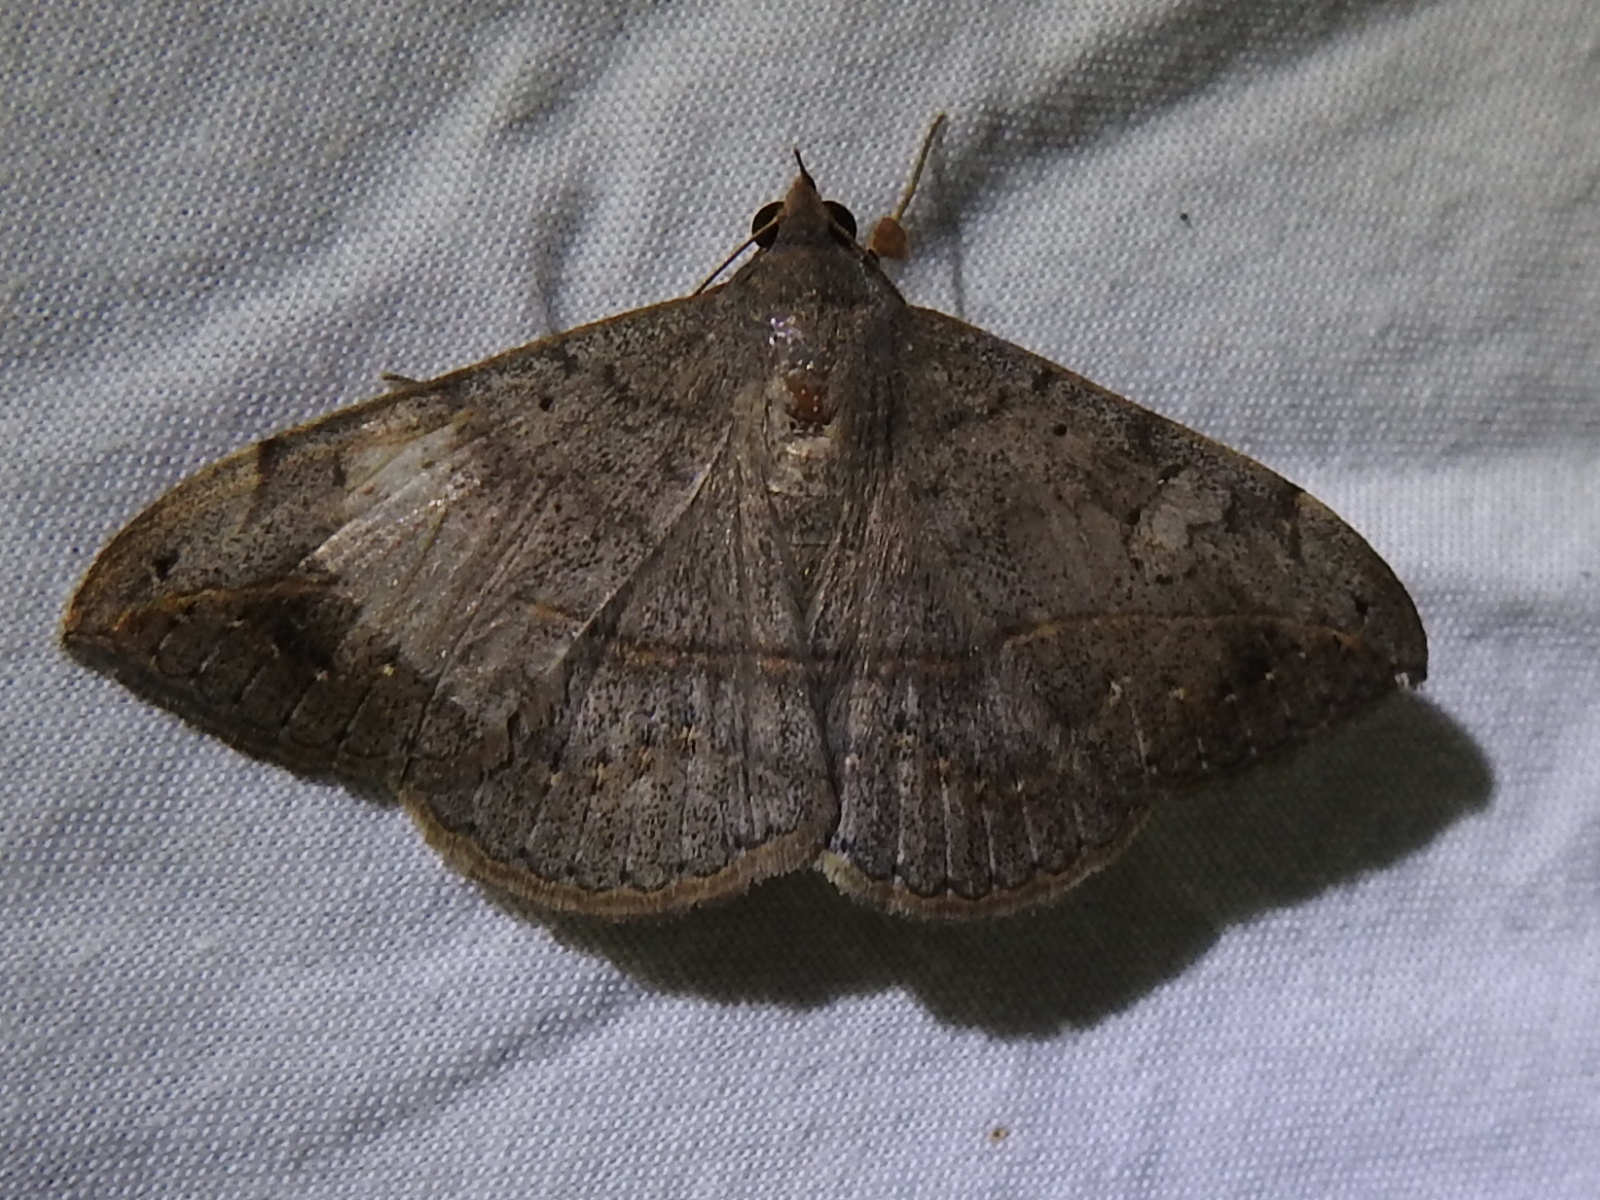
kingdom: Animalia
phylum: Arthropoda
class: Insecta
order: Lepidoptera
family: Erebidae
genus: Anticarsia
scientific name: Anticarsia gemmatalis
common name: Cutworm moth
